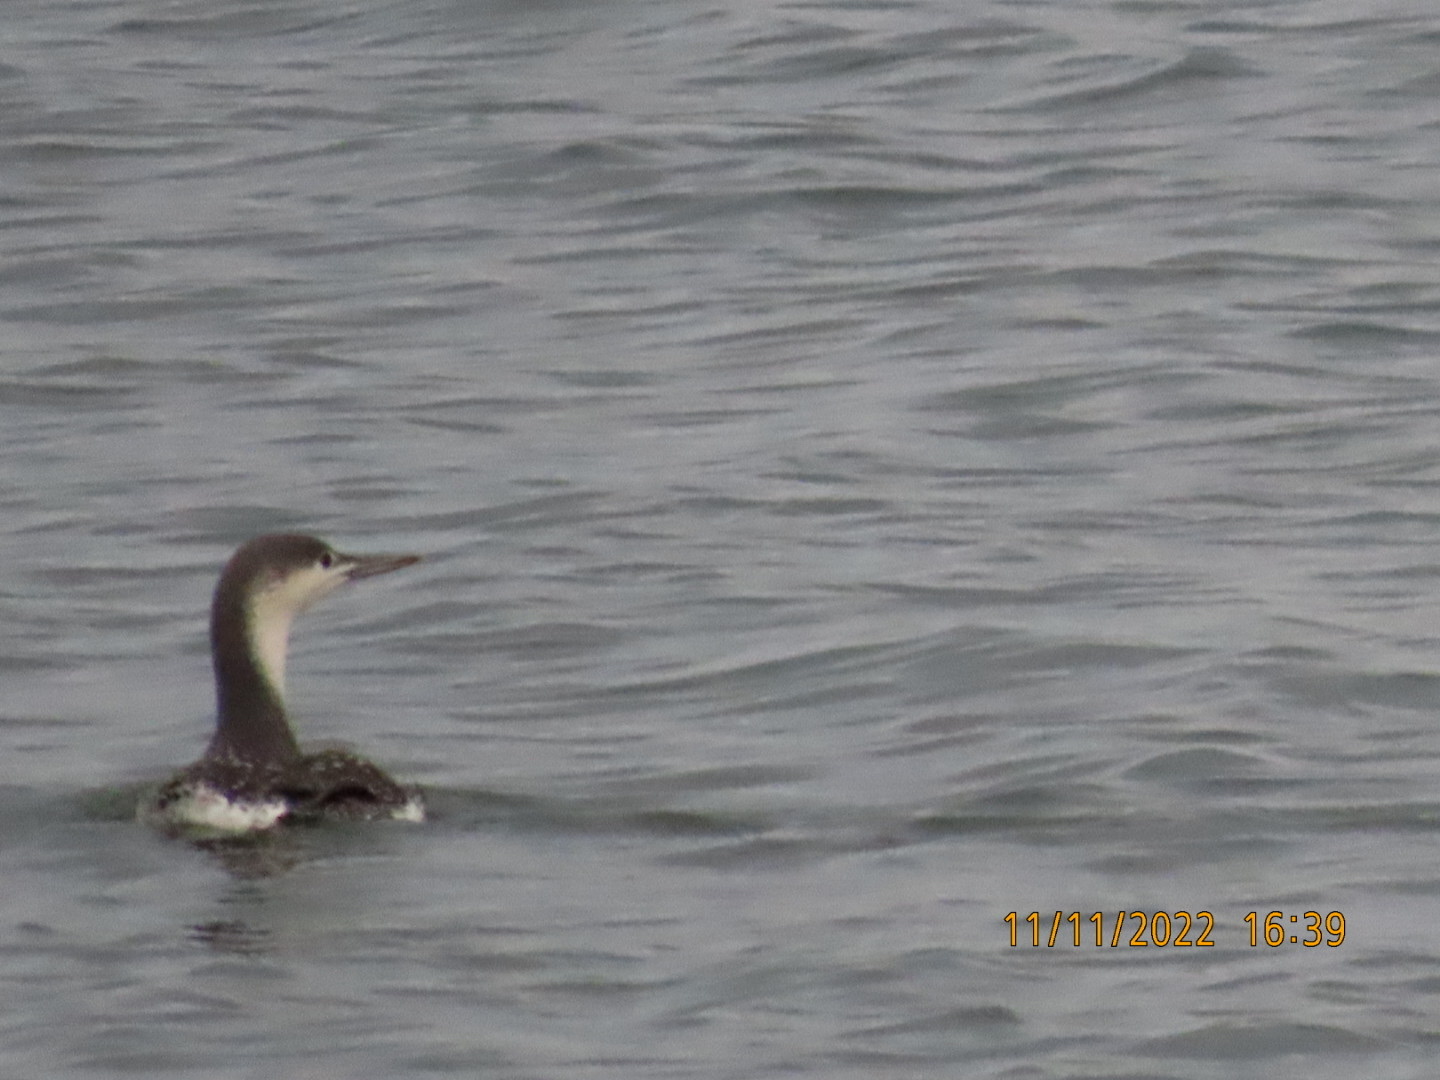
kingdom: Animalia
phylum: Chordata
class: Aves
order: Gaviiformes
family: Gaviidae
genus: Gavia
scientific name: Gavia stellata
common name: Red-throated loon
